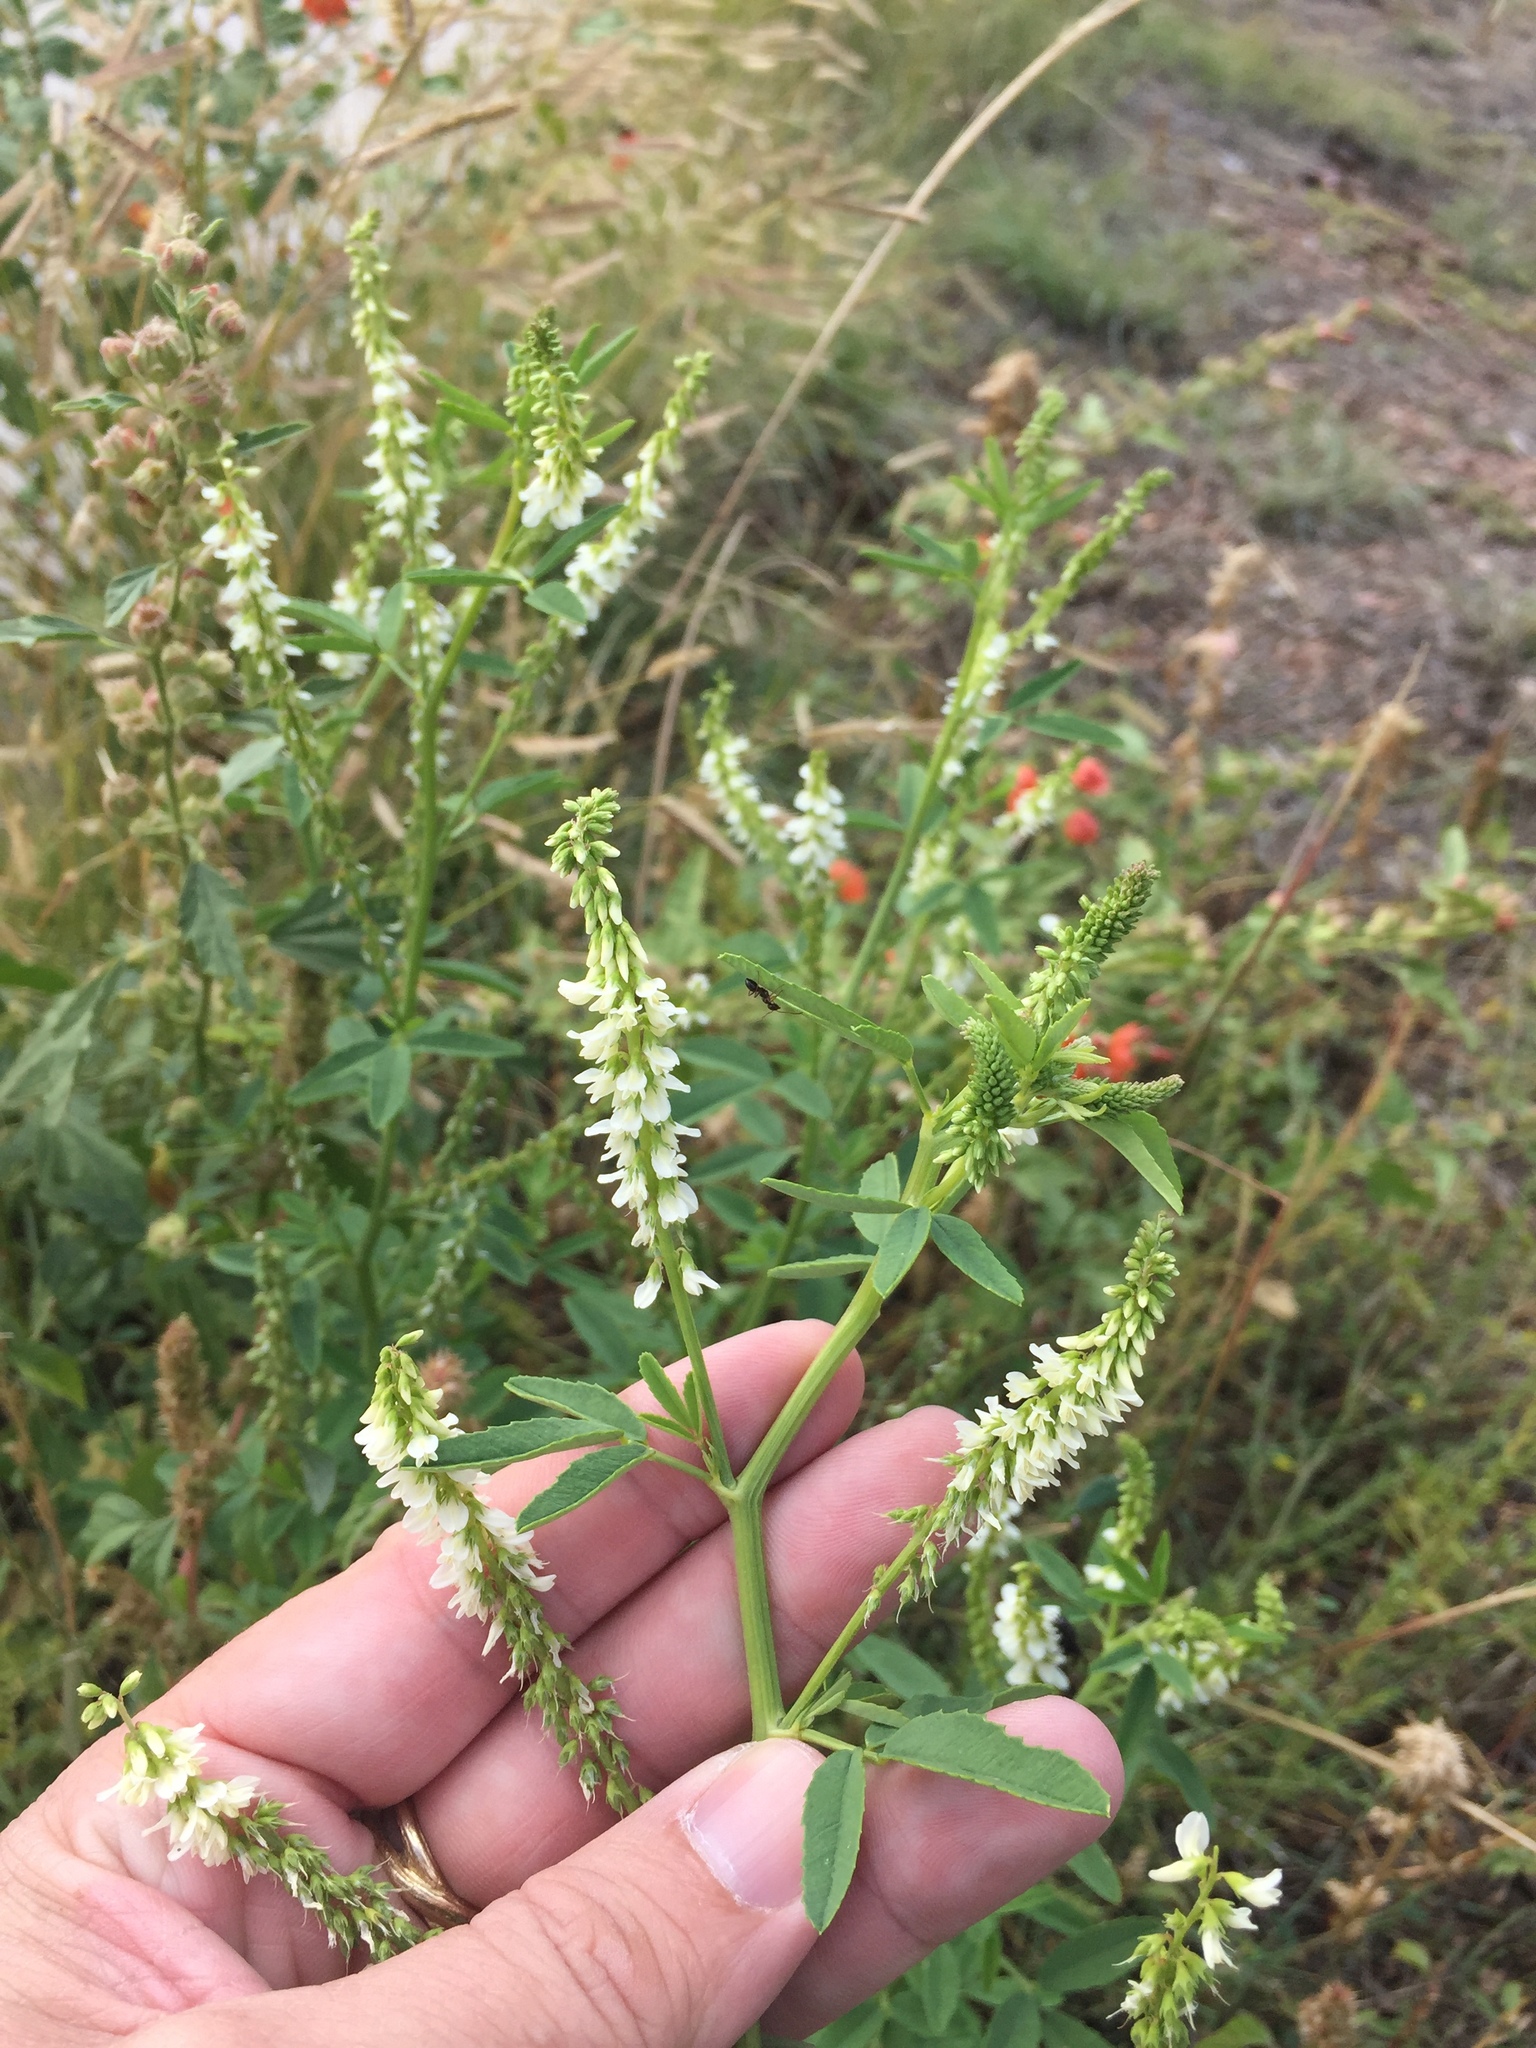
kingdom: Plantae
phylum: Tracheophyta
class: Magnoliopsida
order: Fabales
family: Fabaceae
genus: Melilotus
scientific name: Melilotus albus
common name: White melilot
